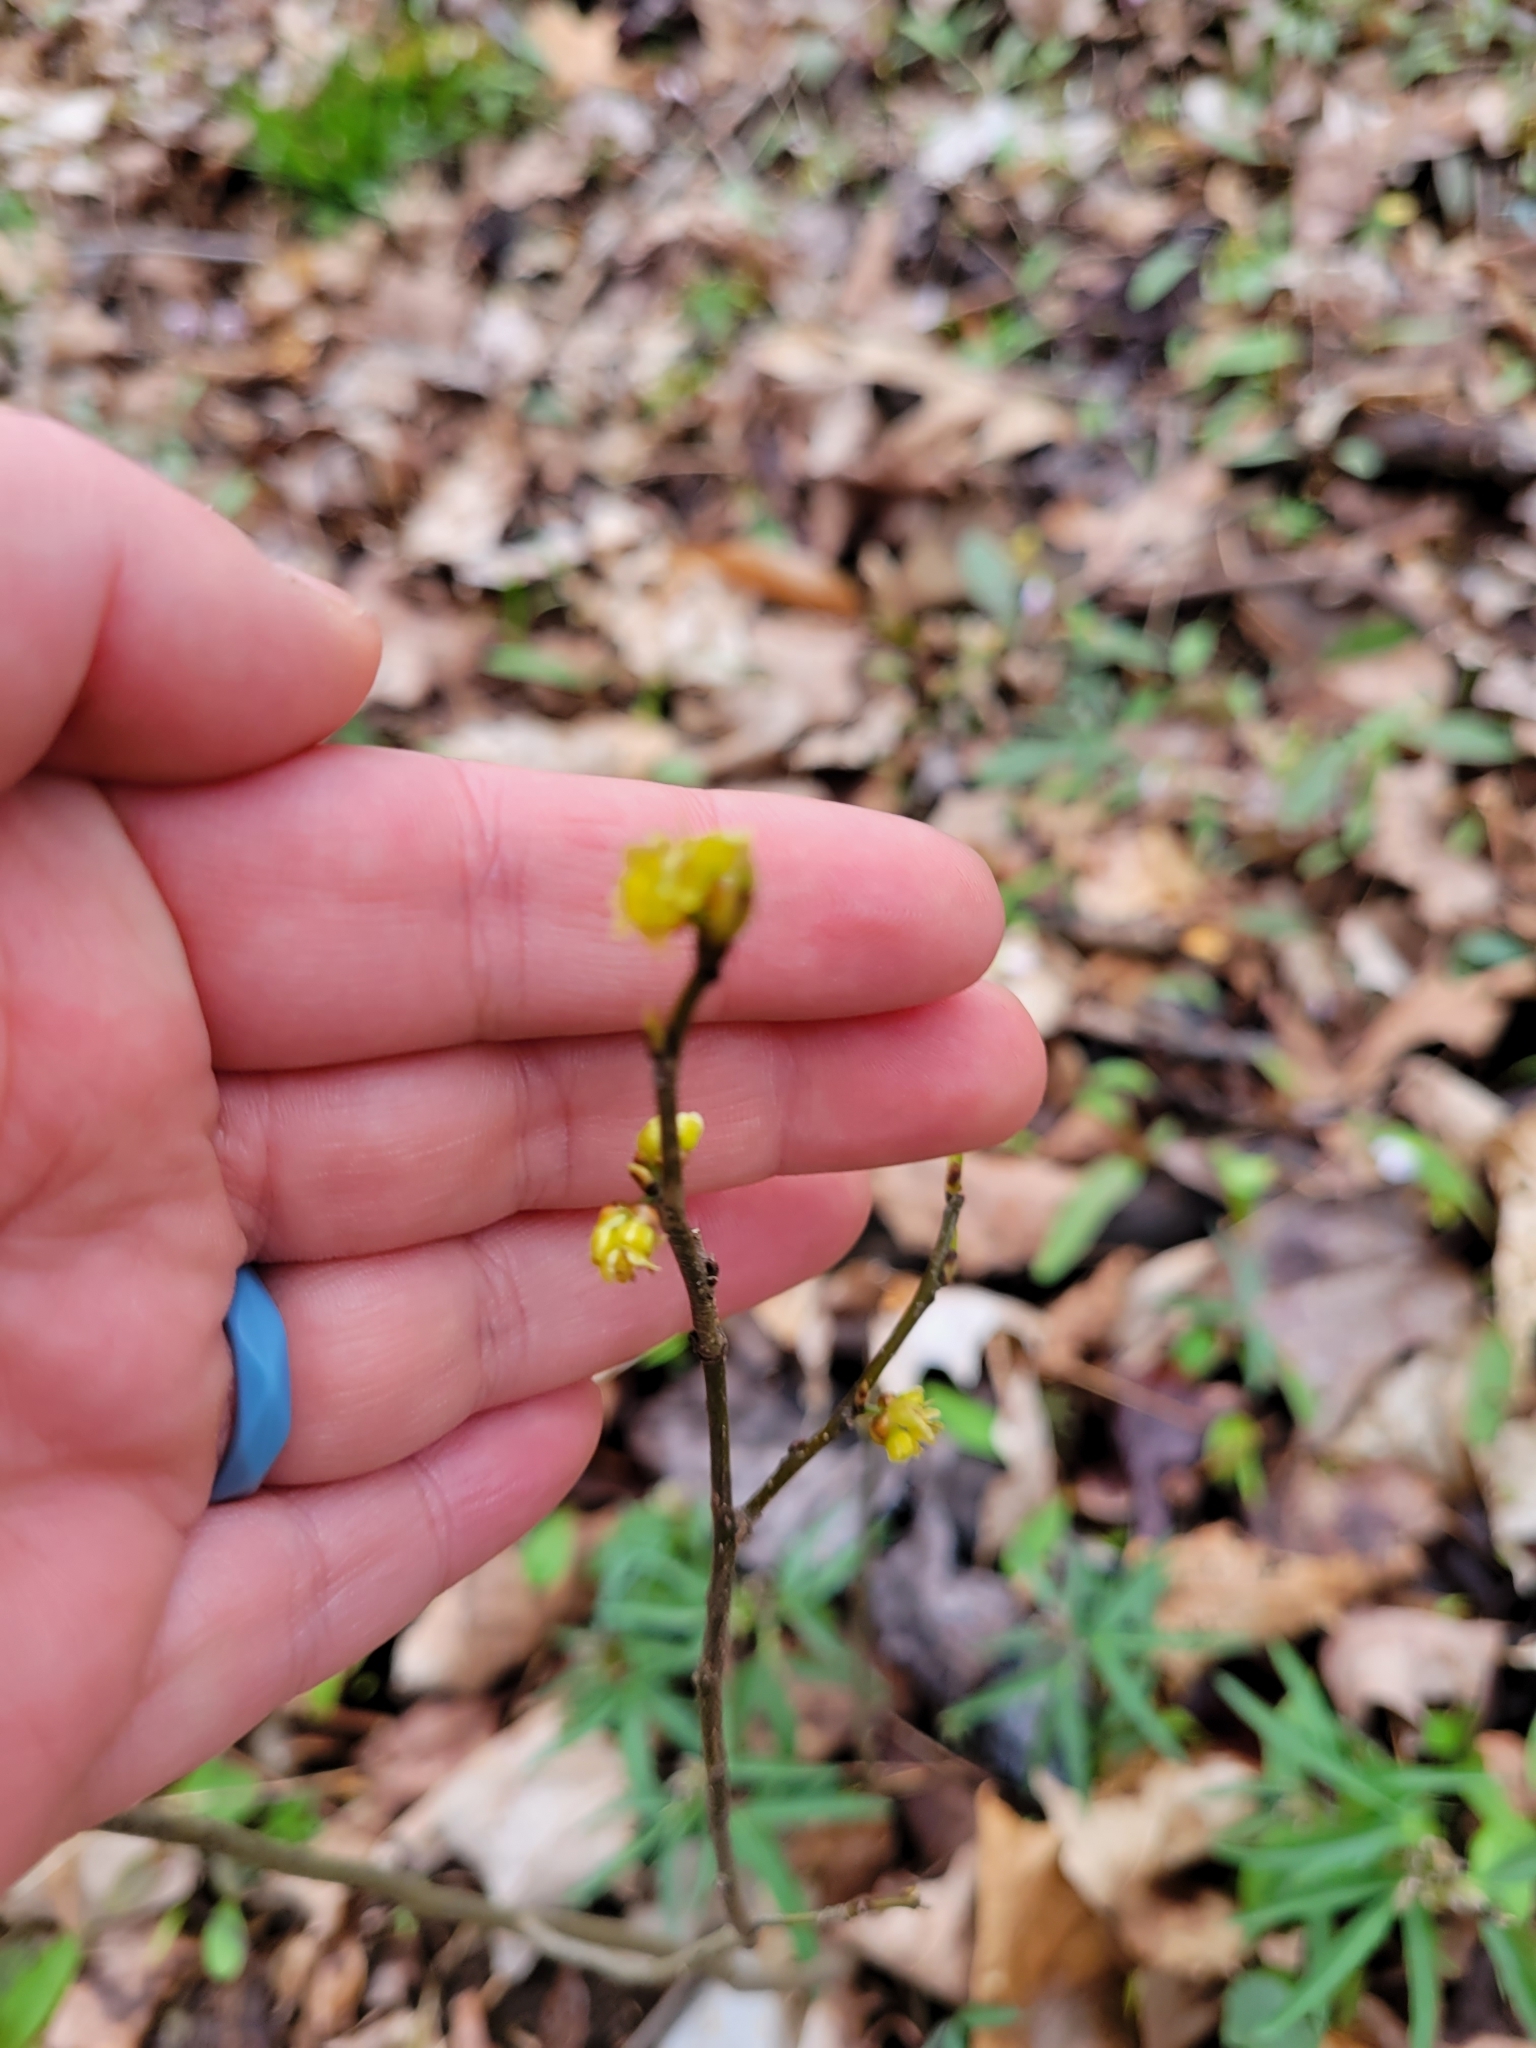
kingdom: Plantae
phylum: Tracheophyta
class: Magnoliopsida
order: Laurales
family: Lauraceae
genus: Lindera
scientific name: Lindera benzoin
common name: Spicebush
